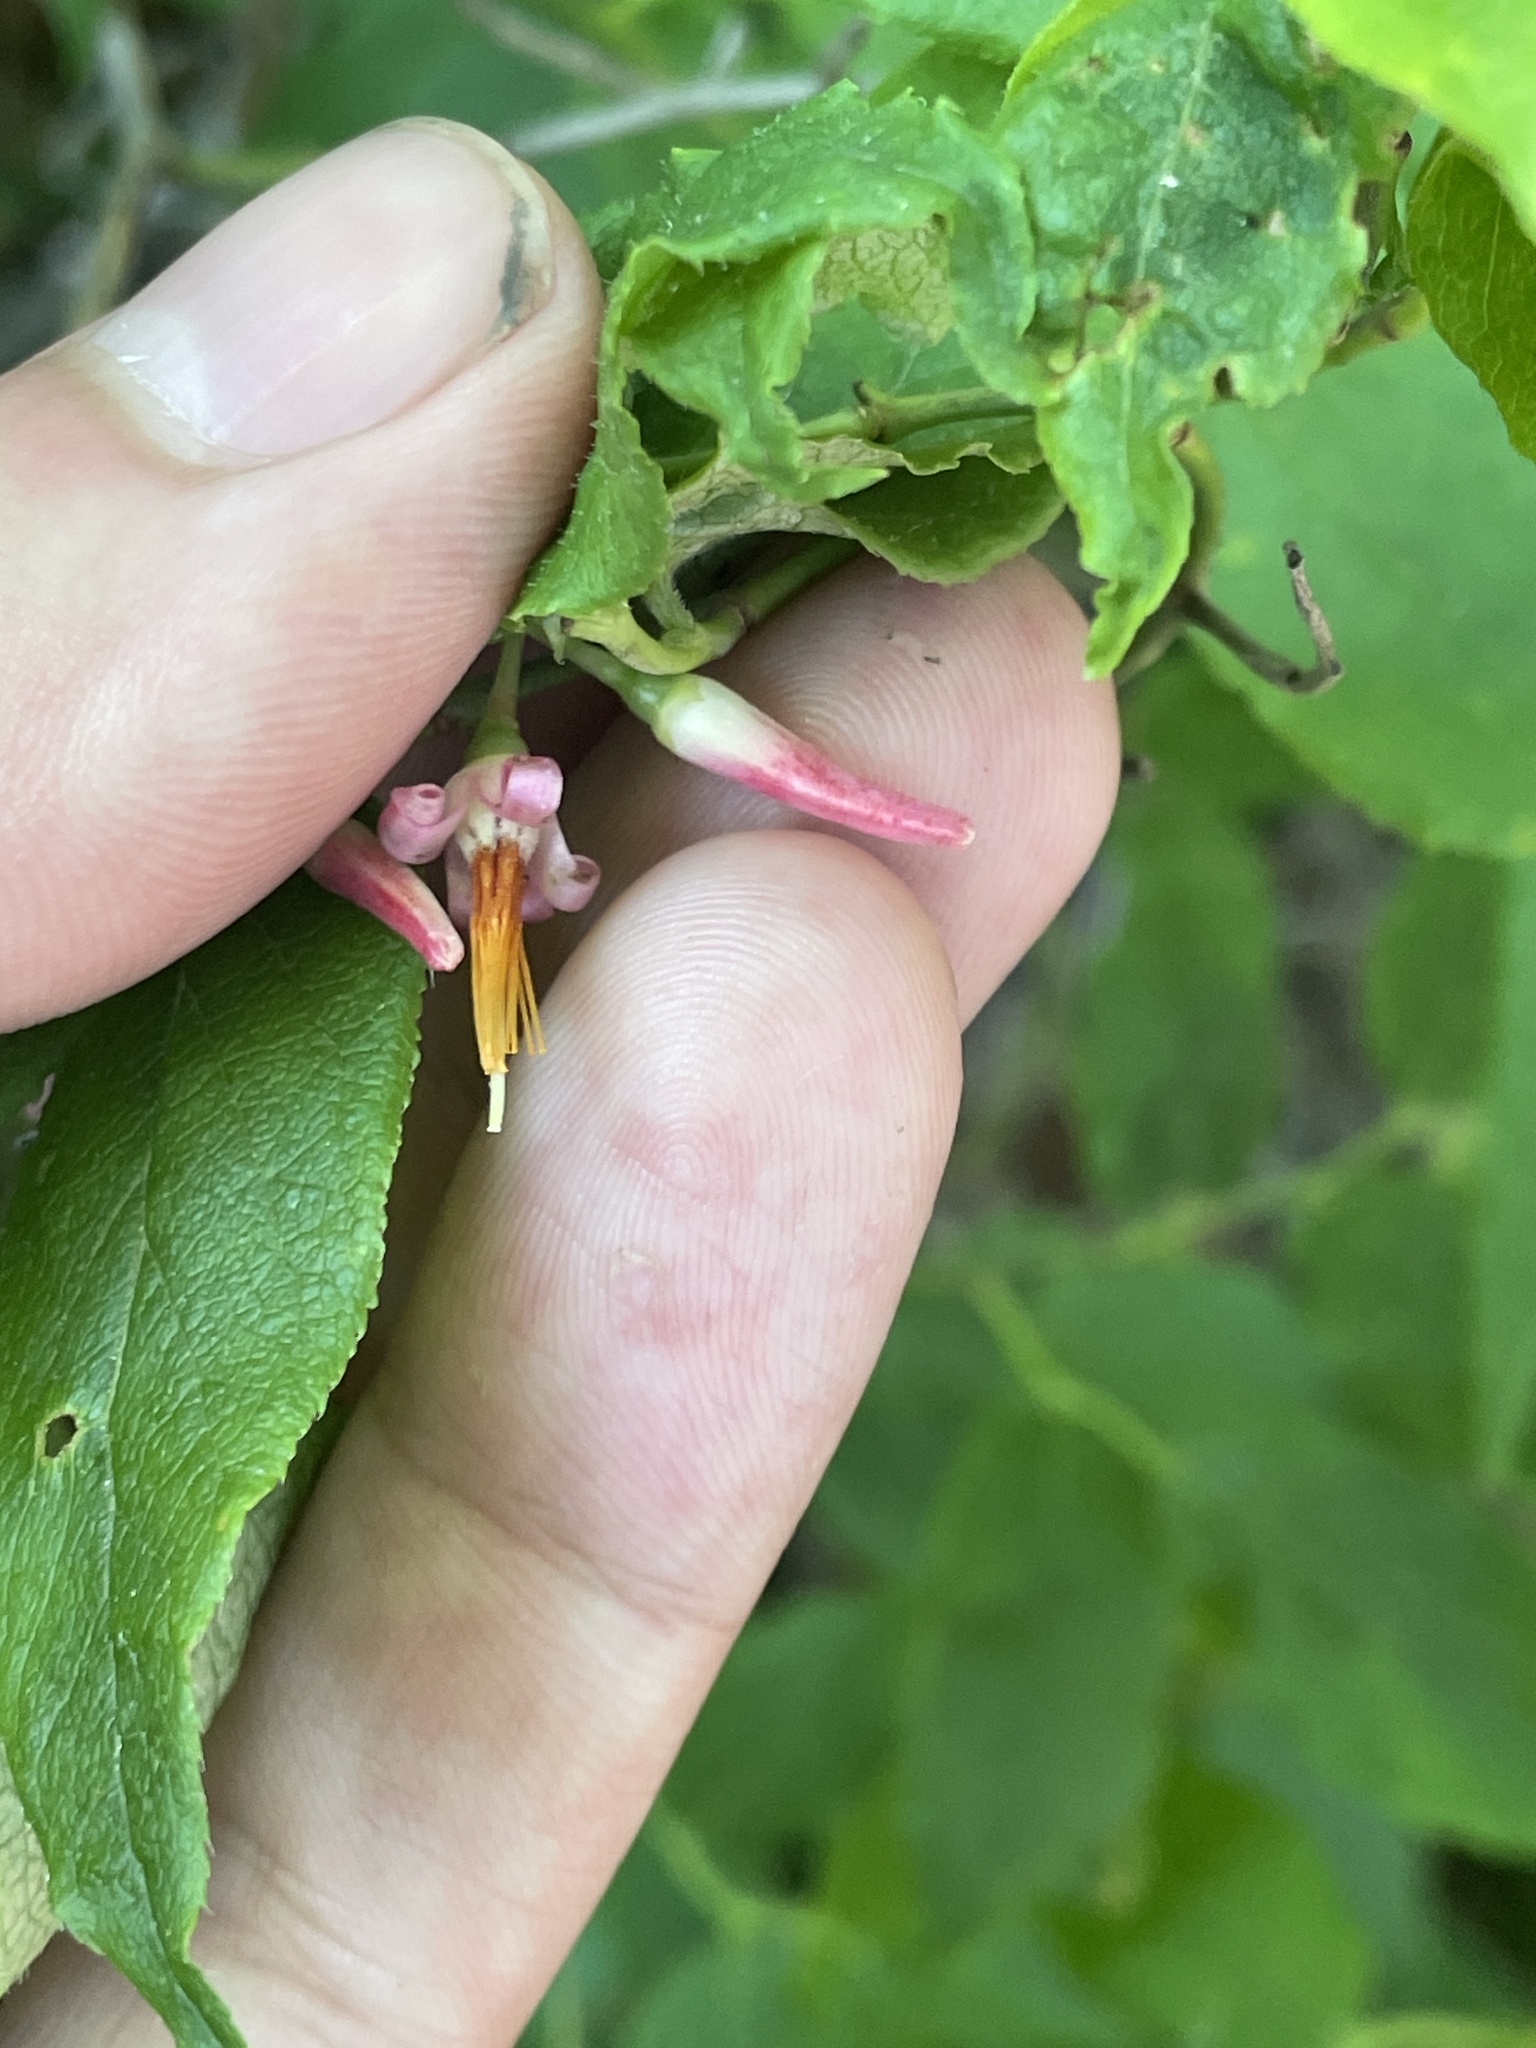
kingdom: Plantae
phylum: Tracheophyta
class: Magnoliopsida
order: Ericales
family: Ericaceae
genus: Vaccinium
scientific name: Vaccinium erythrocarpum
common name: Bearberry
